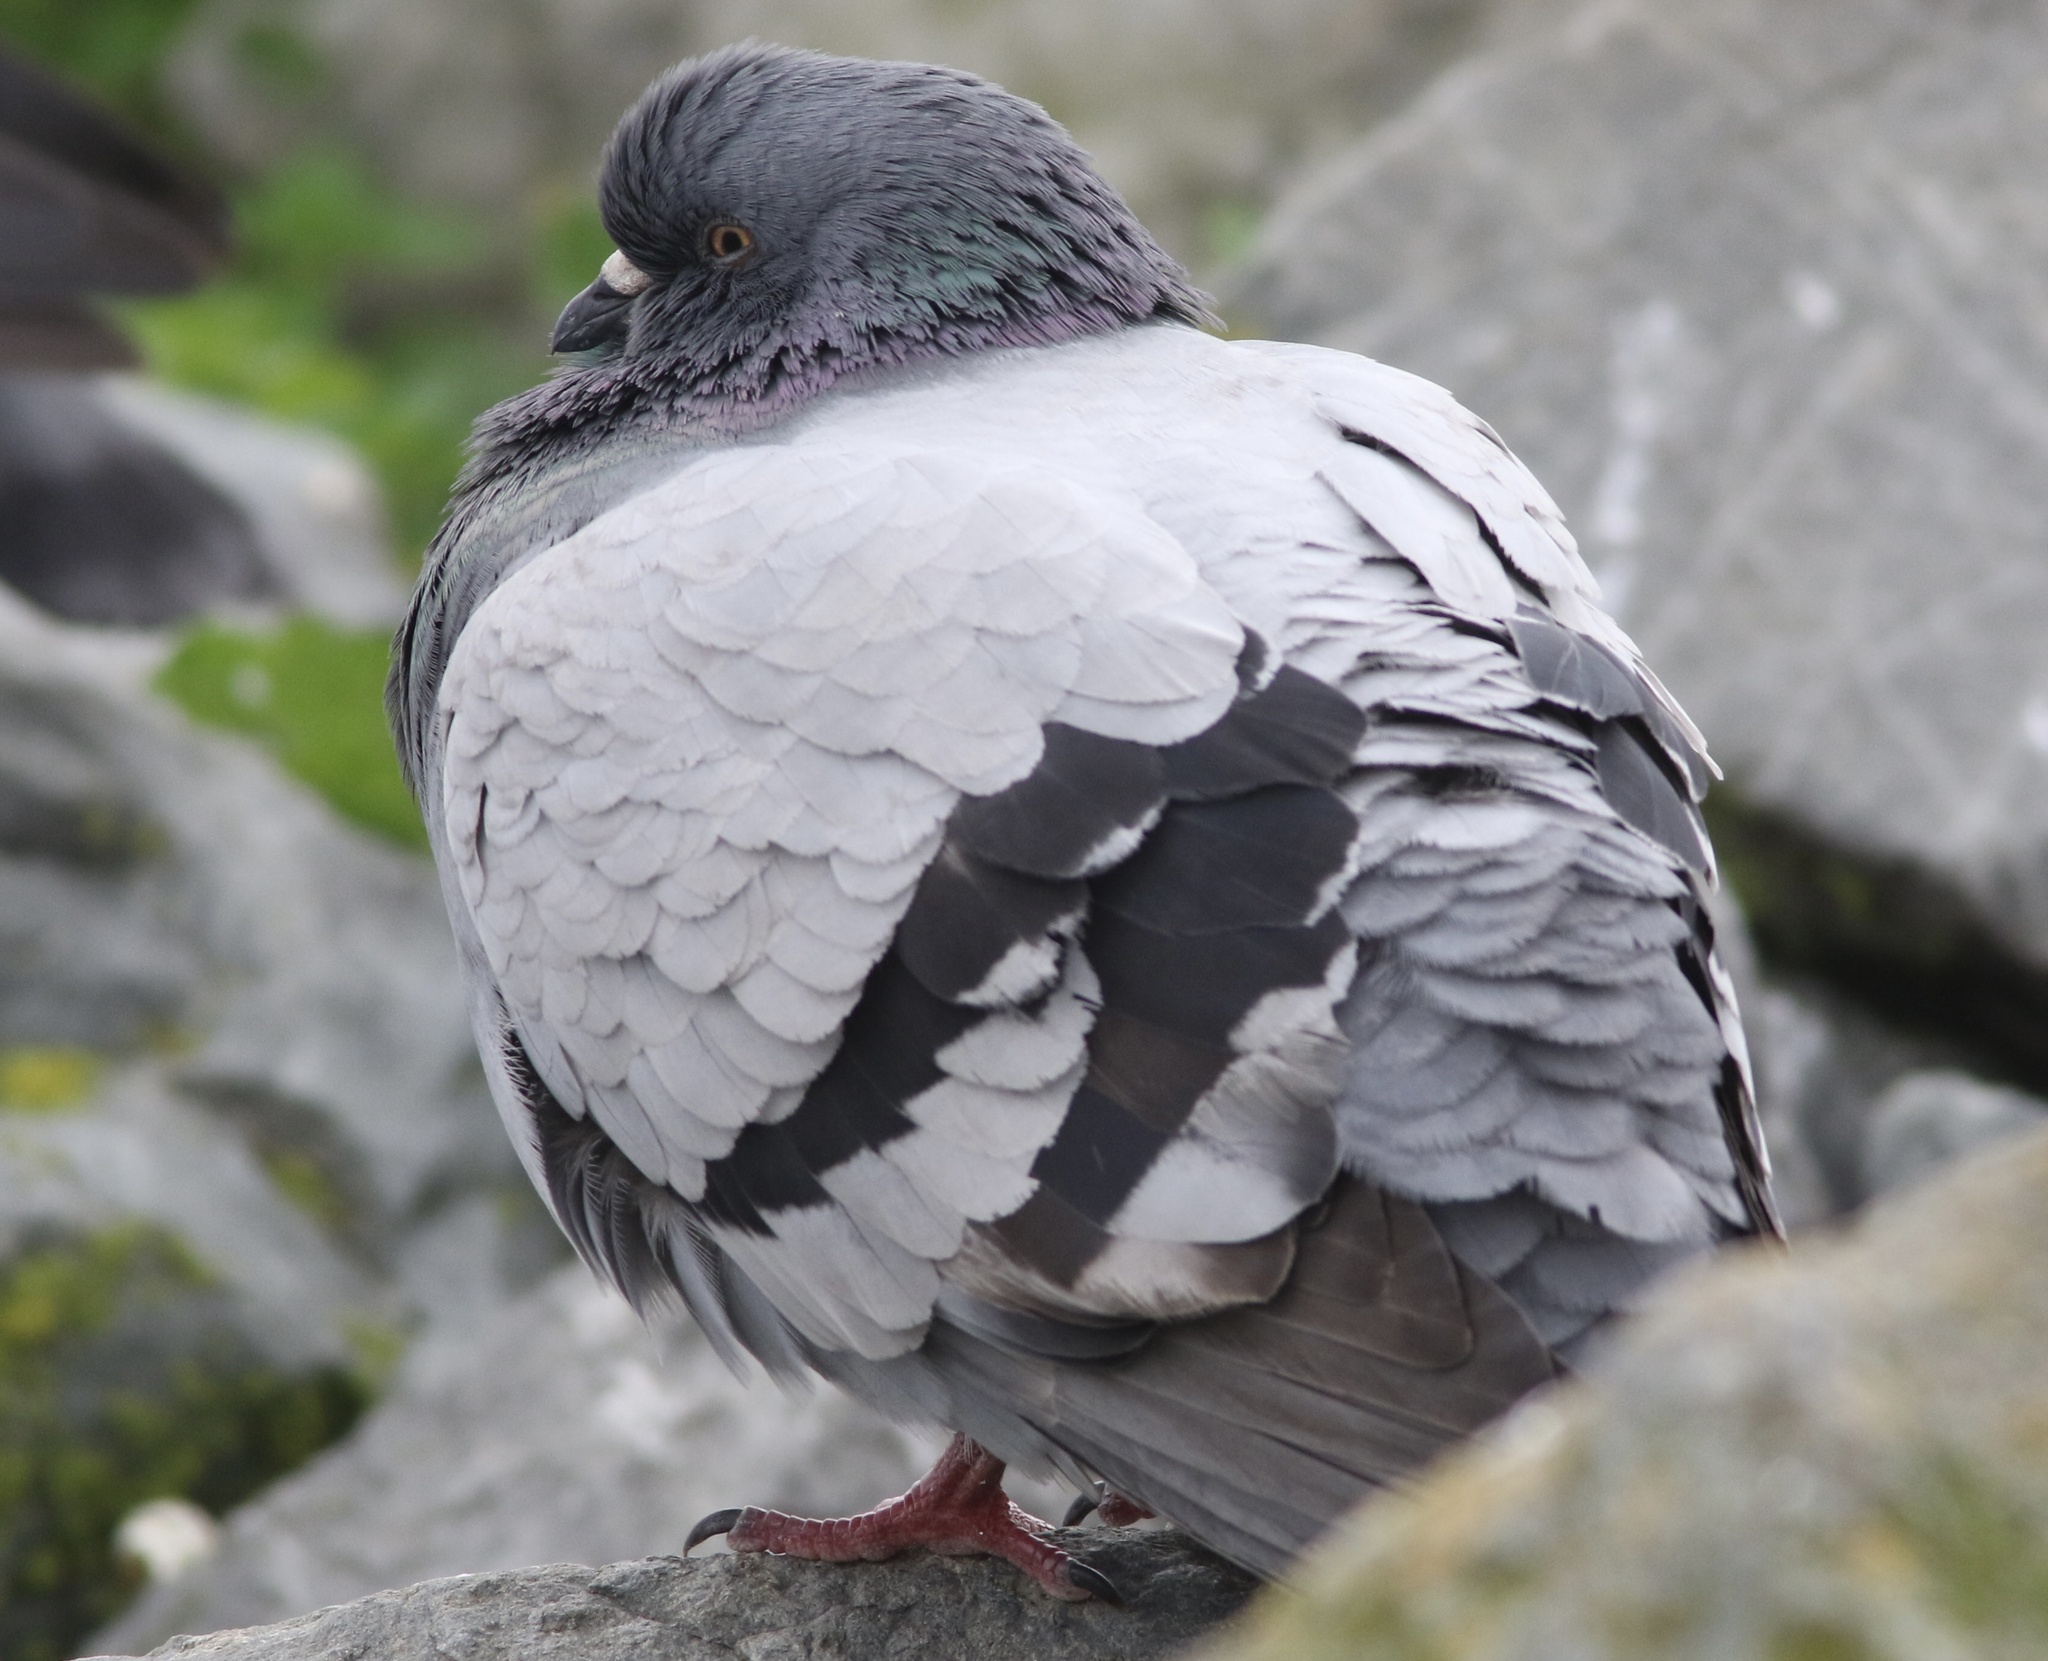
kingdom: Animalia
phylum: Chordata
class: Aves
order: Columbiformes
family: Columbidae
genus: Columba
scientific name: Columba livia
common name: Rock pigeon
